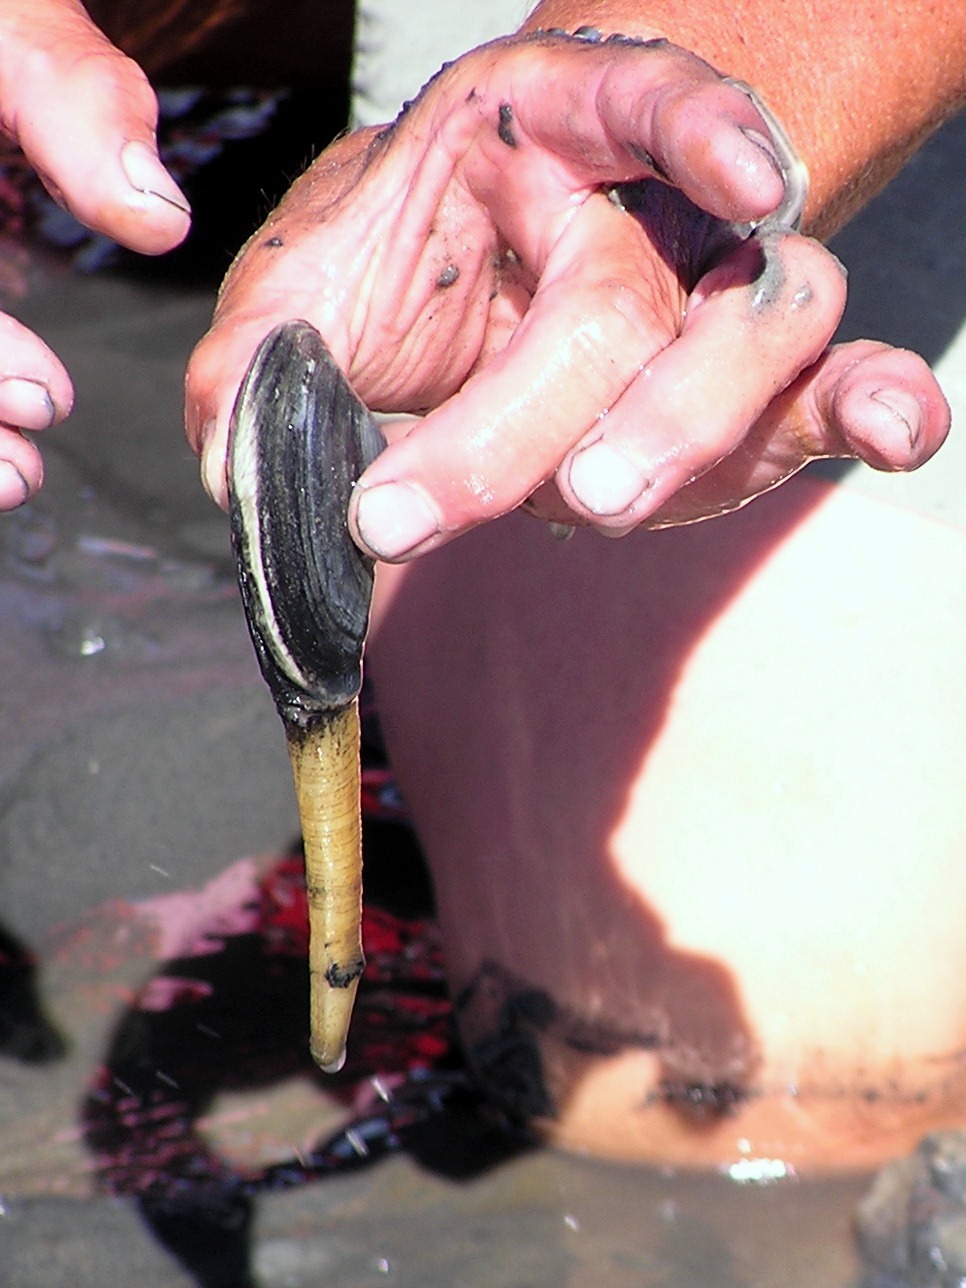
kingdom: Animalia
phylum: Mollusca
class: Bivalvia
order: Myida
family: Myidae
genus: Mya
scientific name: Mya arenaria
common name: Soft-shelled clam
